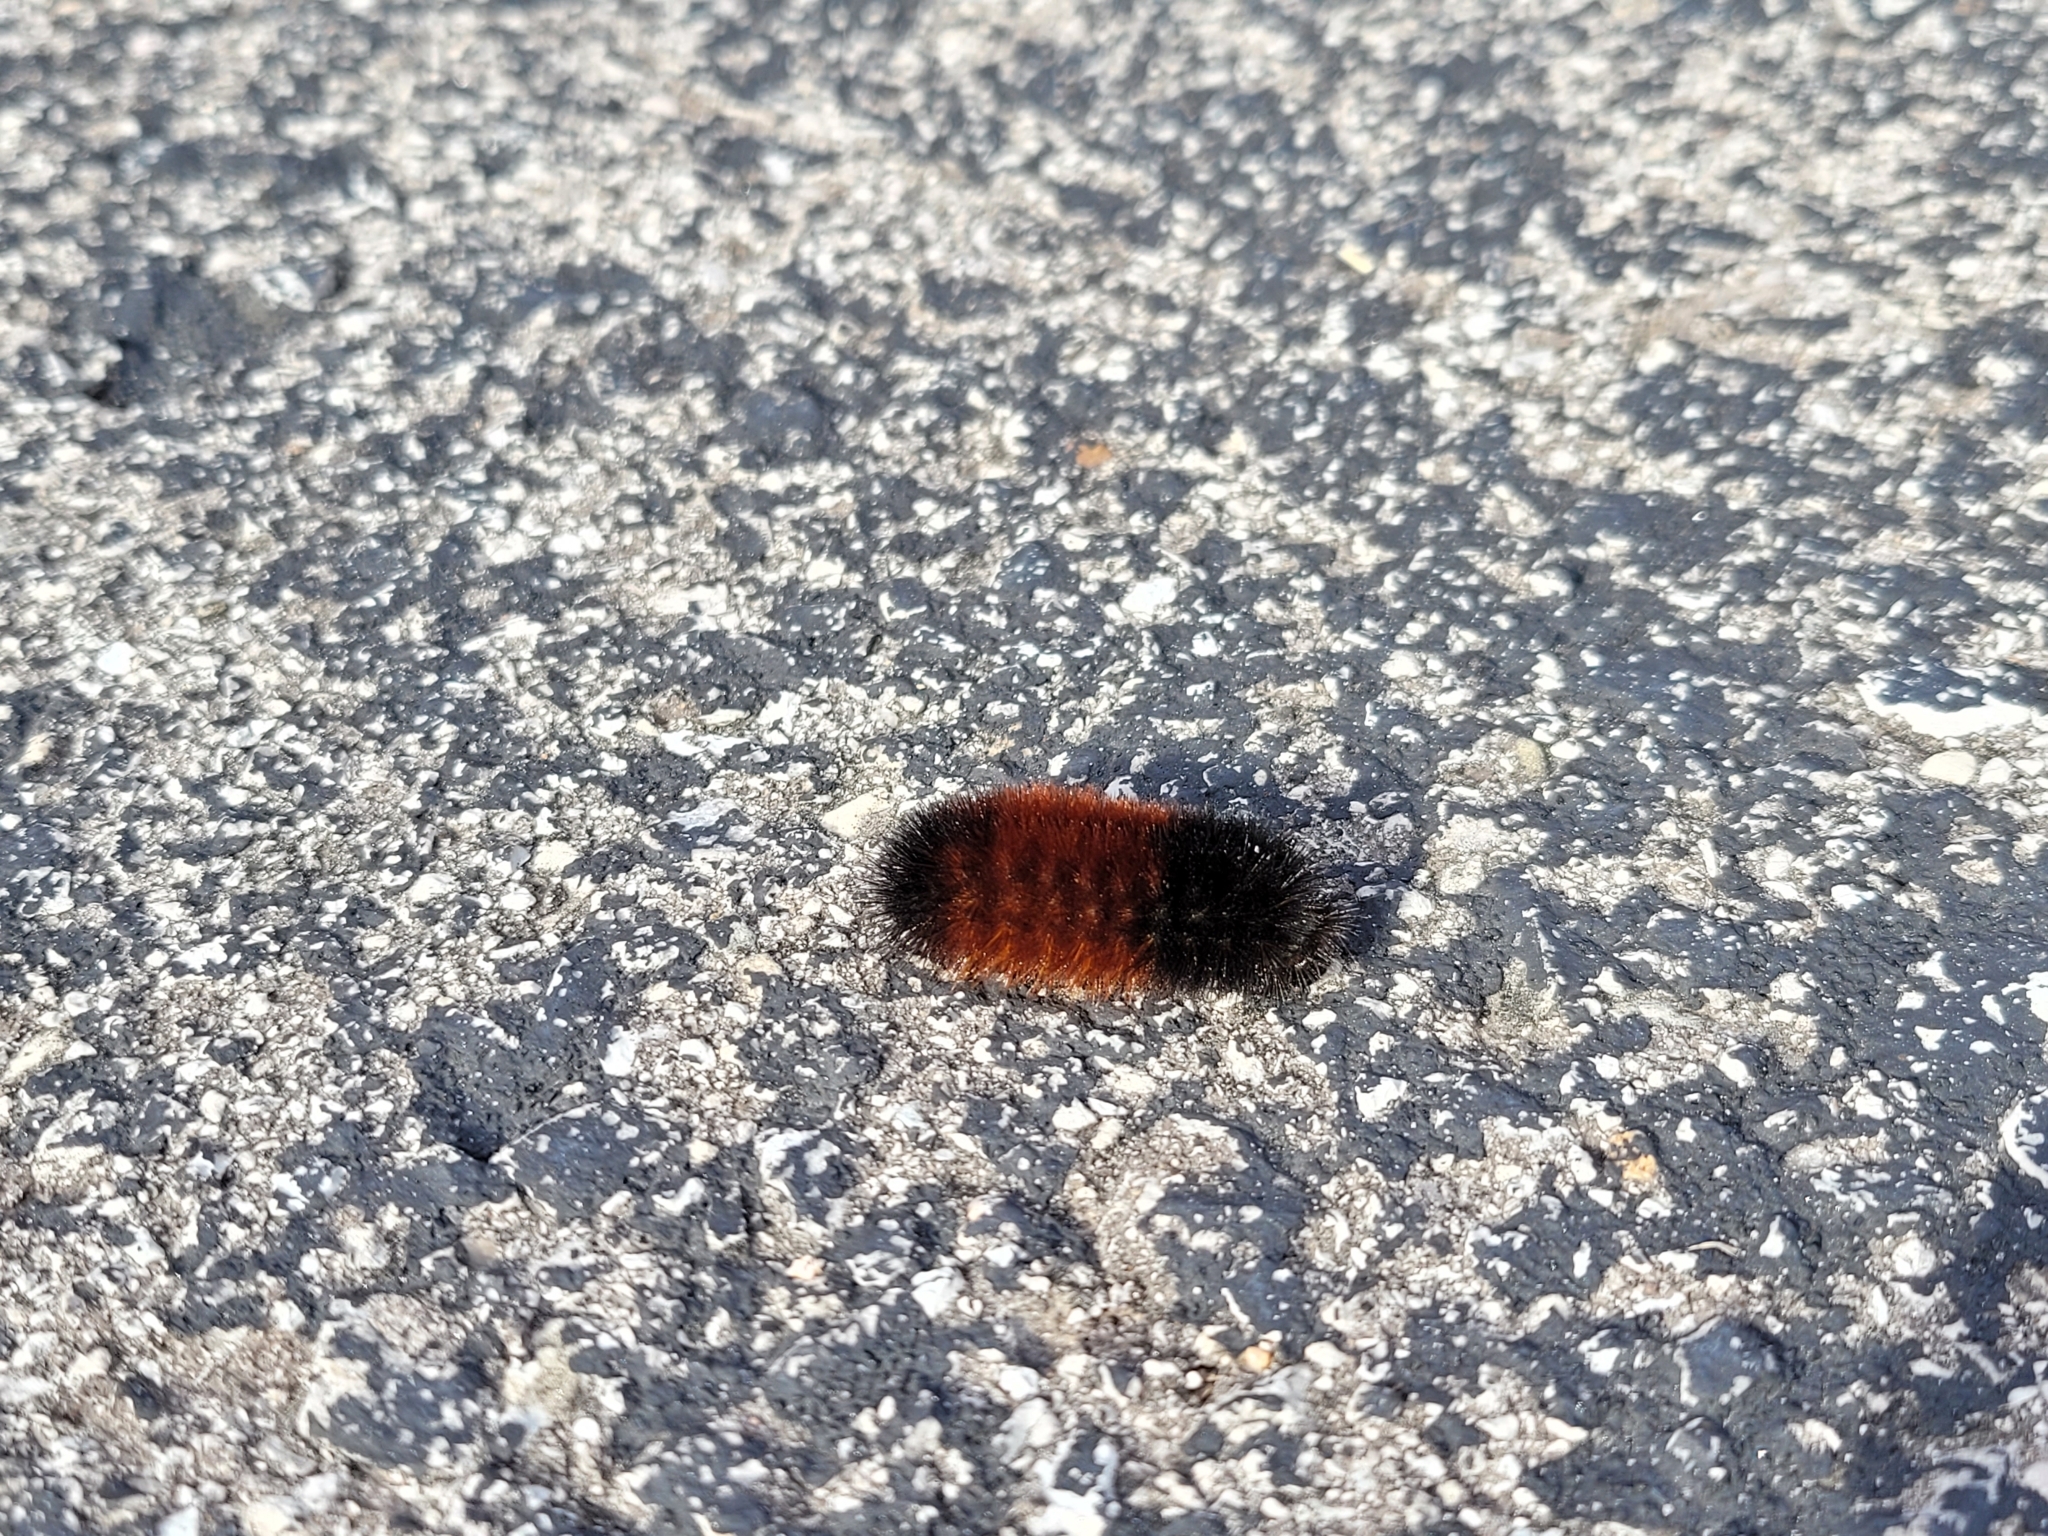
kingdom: Animalia
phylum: Arthropoda
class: Insecta
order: Lepidoptera
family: Erebidae
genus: Pyrrharctia
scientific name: Pyrrharctia isabella
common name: Isabella tiger moth
